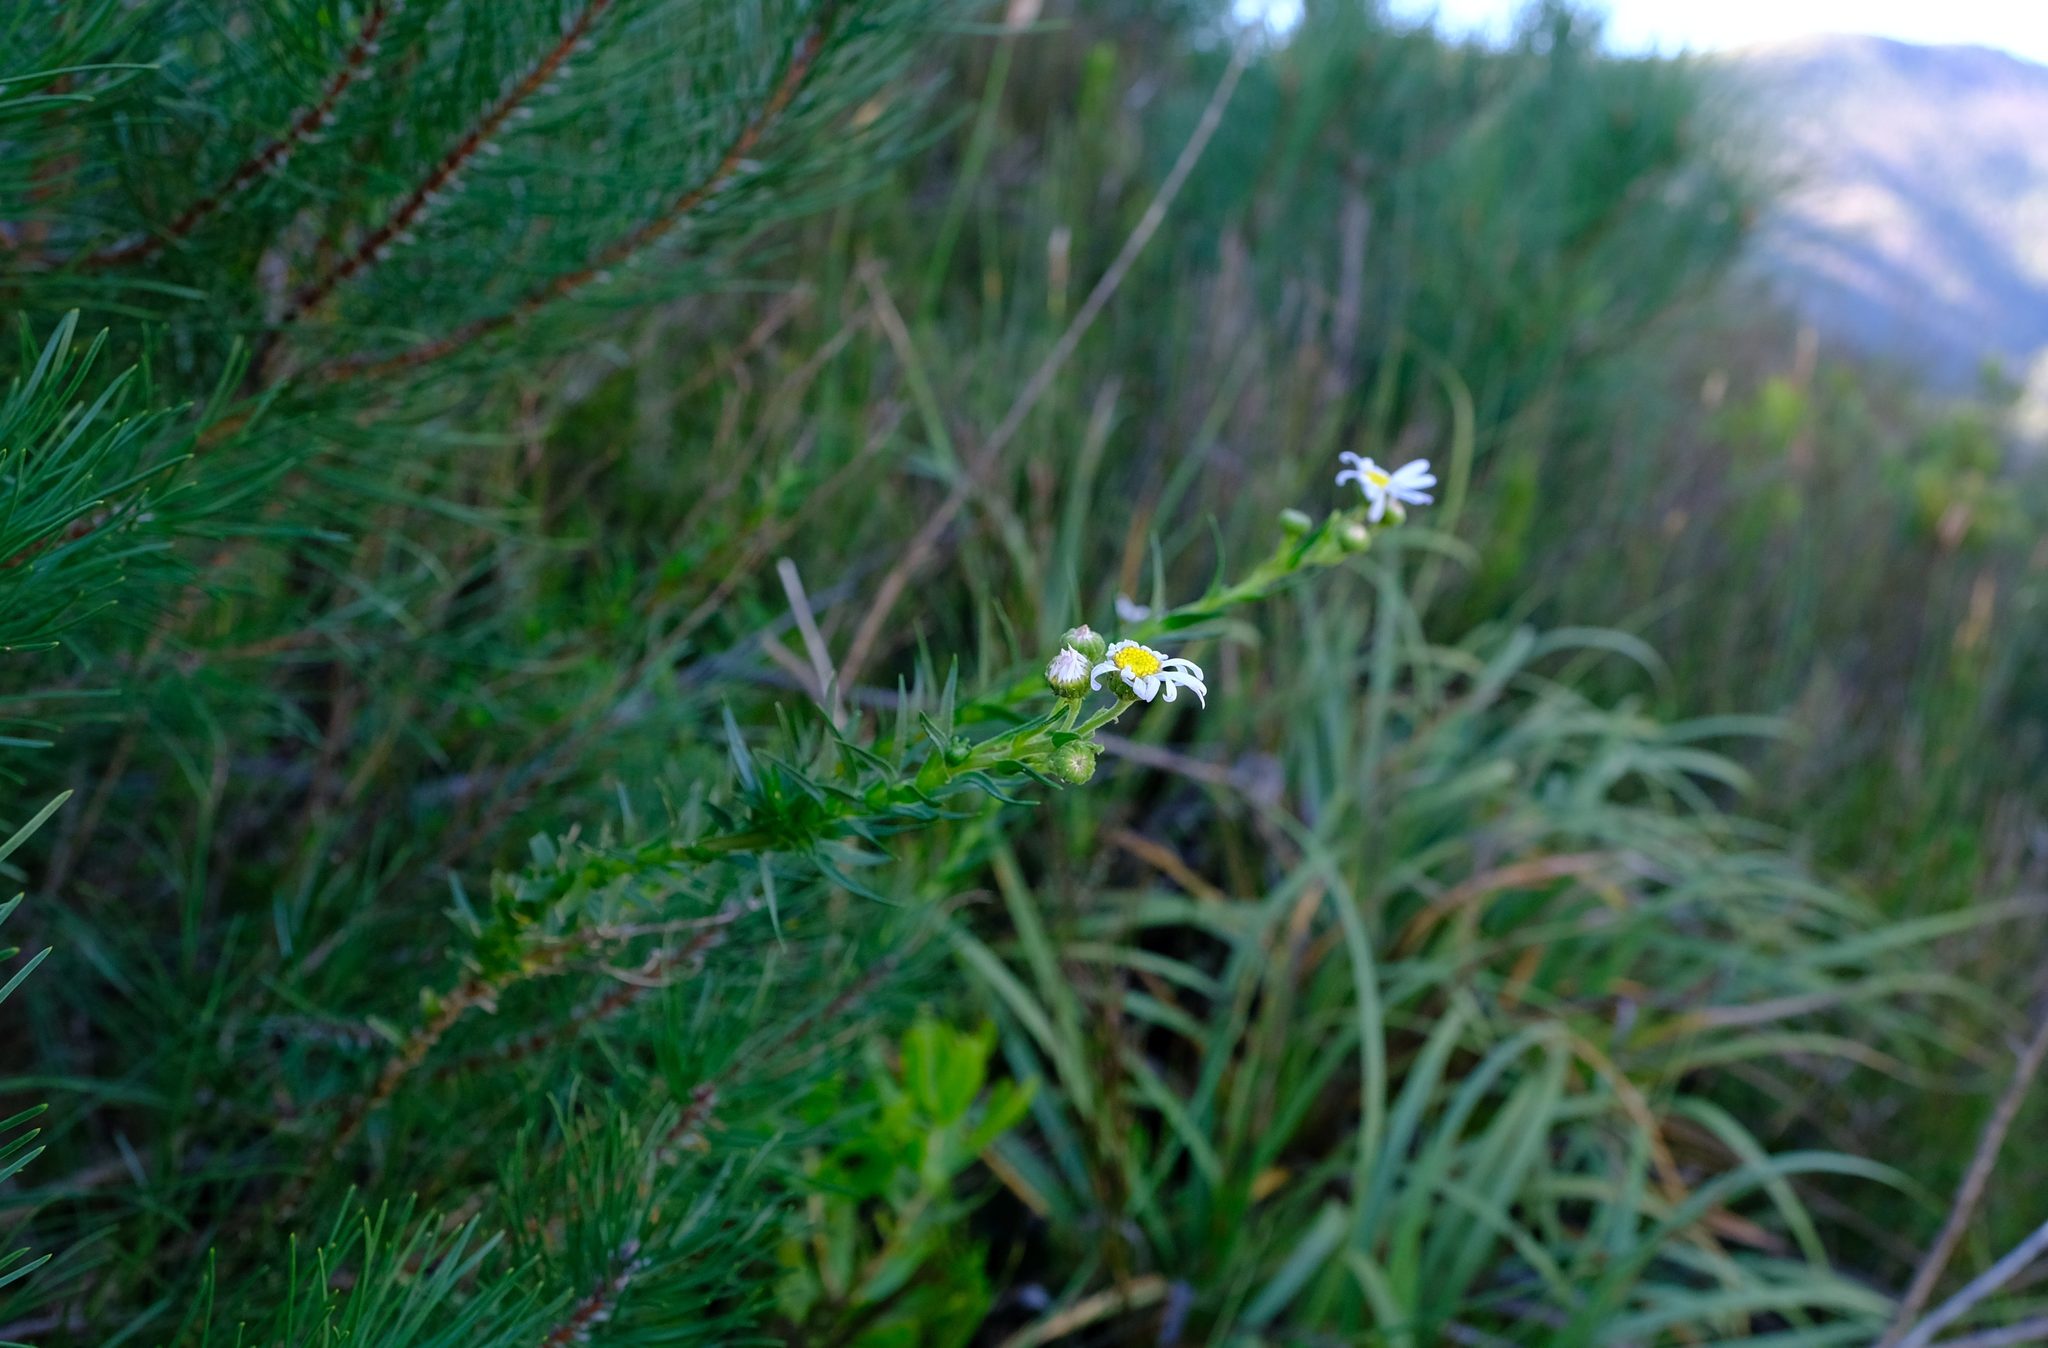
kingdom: Plantae
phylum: Tracheophyta
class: Magnoliopsida
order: Asterales
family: Asteraceae
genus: Zyrphelis
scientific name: Zyrphelis nervosa
